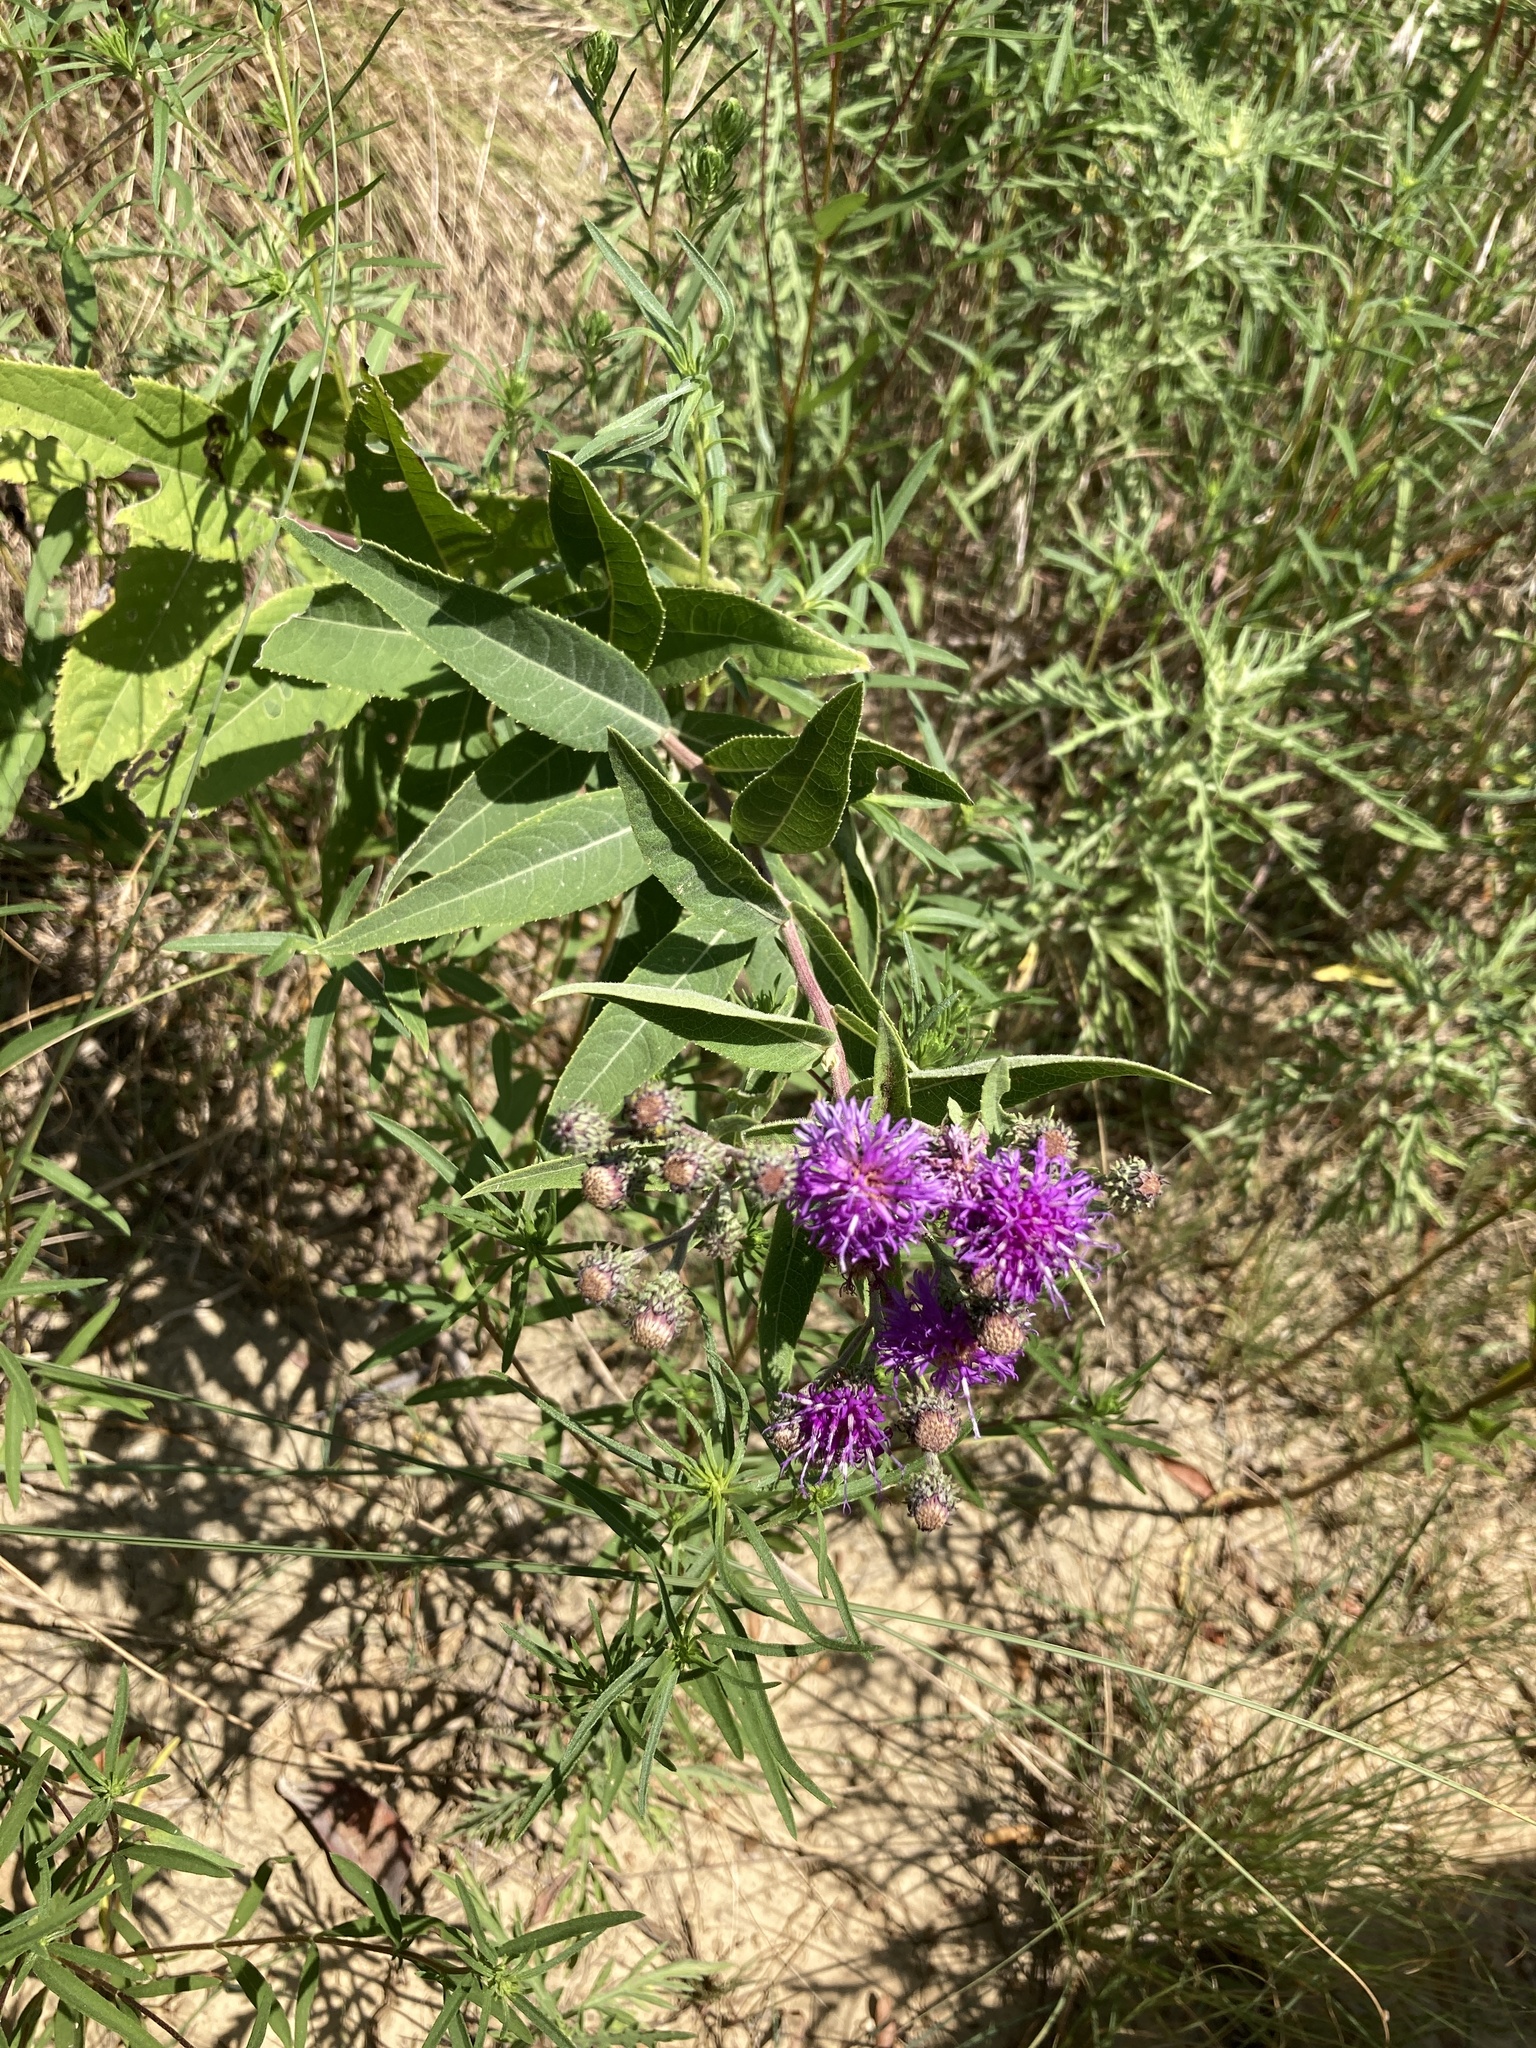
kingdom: Plantae
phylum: Tracheophyta
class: Magnoliopsida
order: Asterales
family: Asteraceae
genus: Vernonia
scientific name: Vernonia baldwinii
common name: Western ironweed
